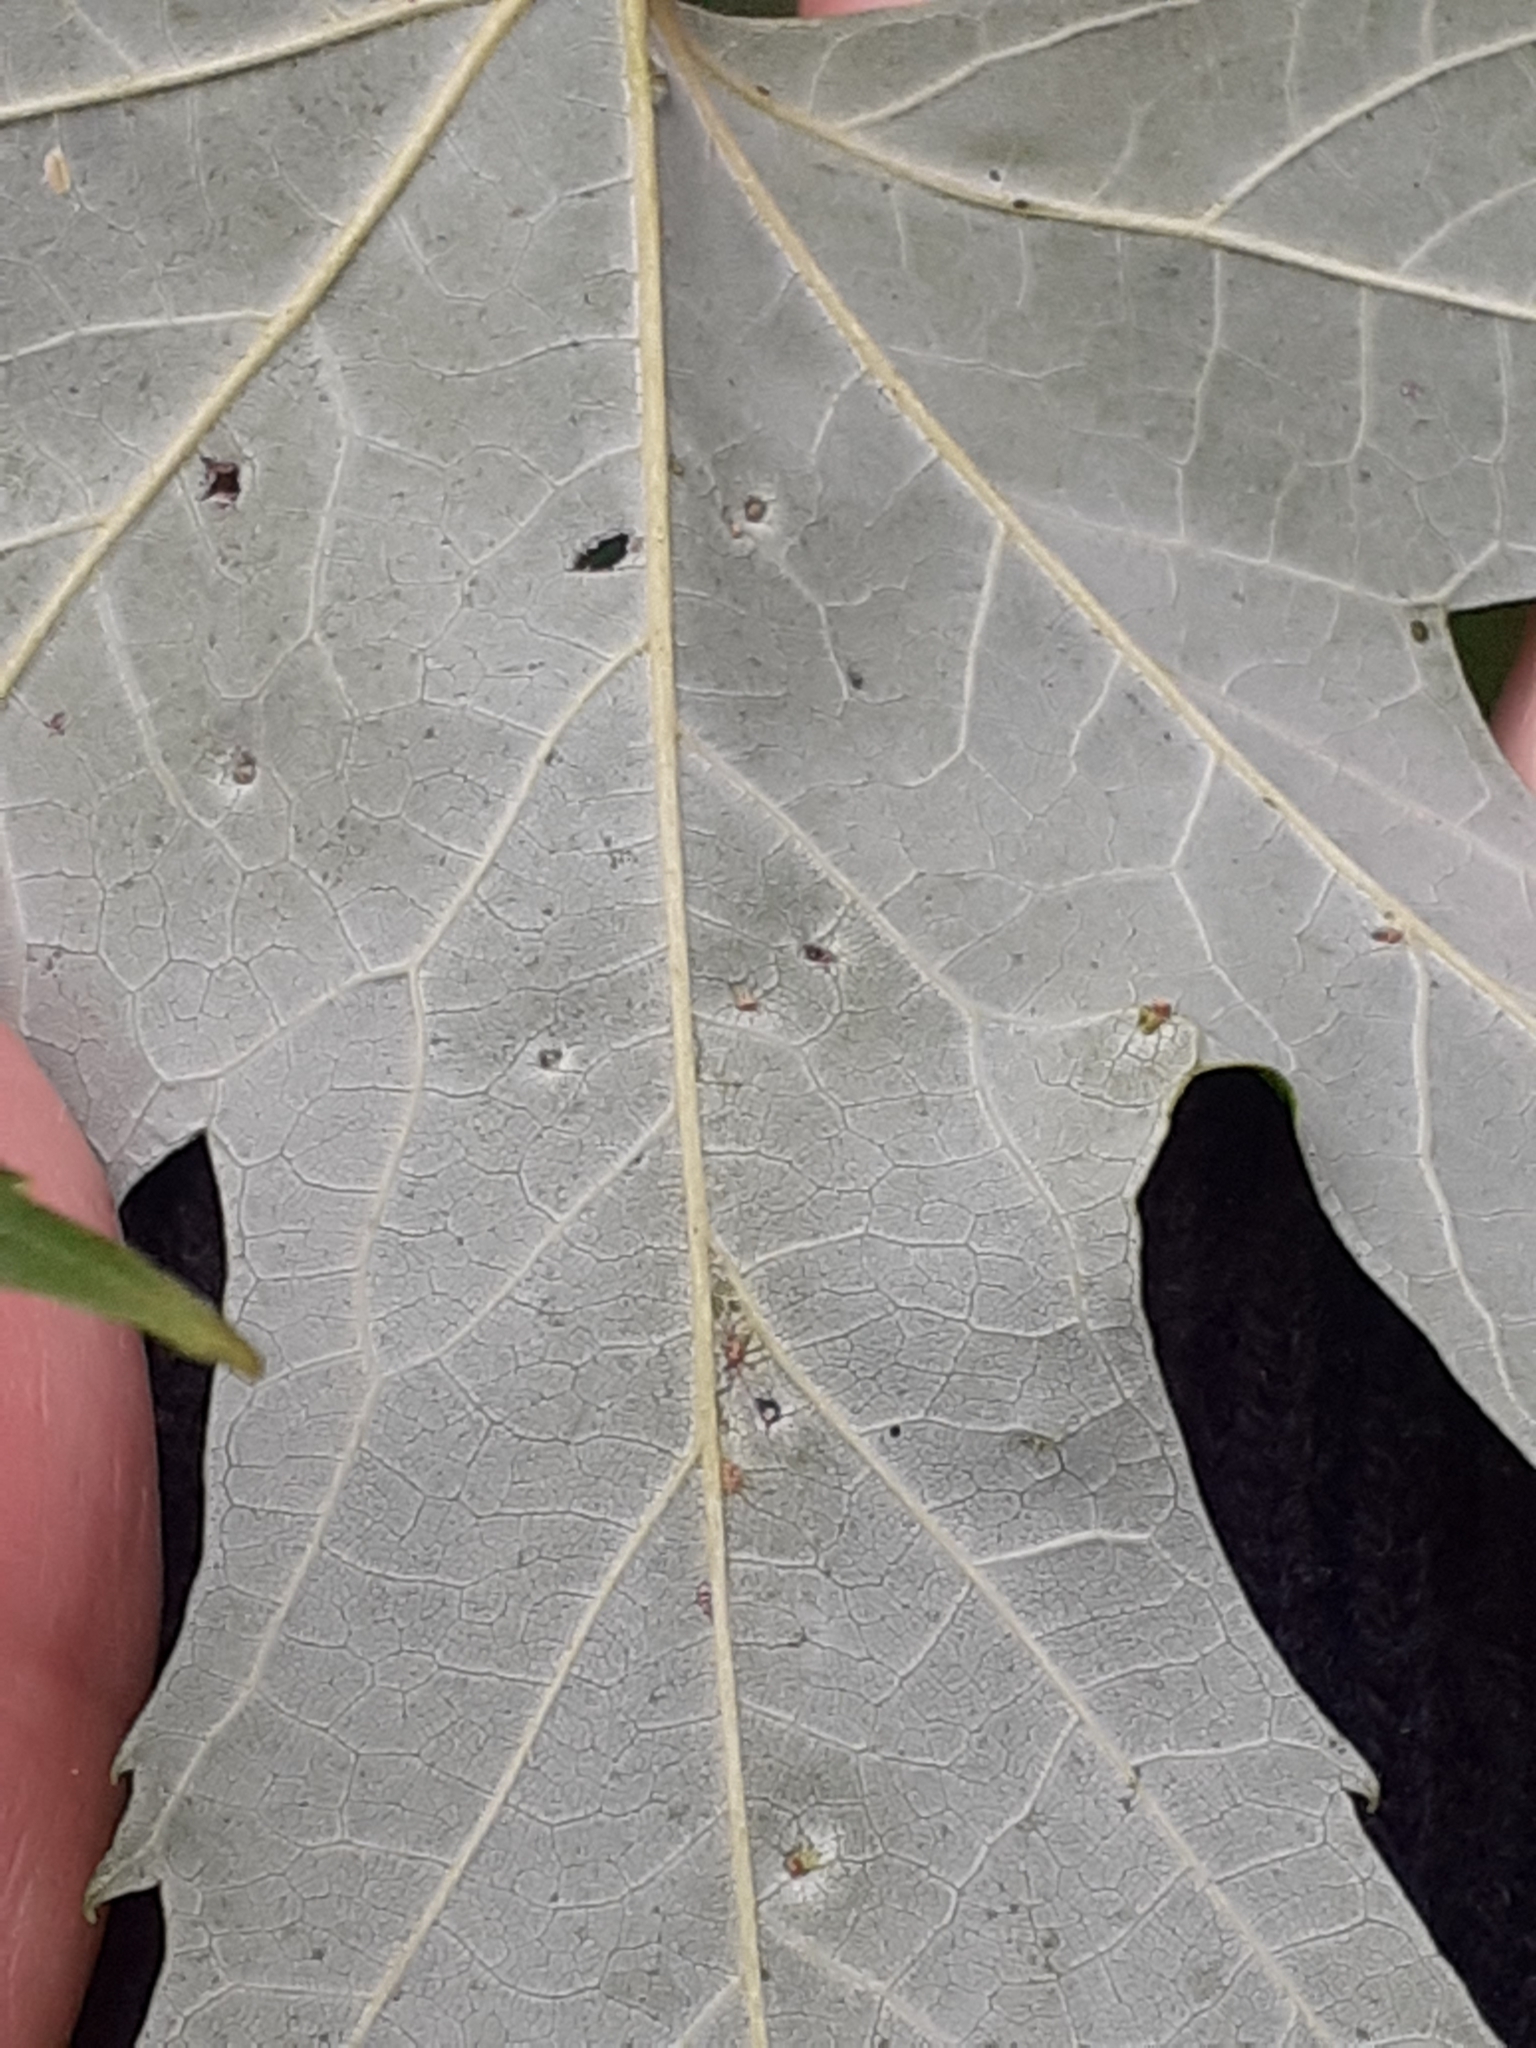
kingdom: Animalia
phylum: Arthropoda
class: Arachnida
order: Trombidiformes
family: Eriophyidae
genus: Vasates
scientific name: Vasates quadripedes
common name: Maple bladder gall mite
